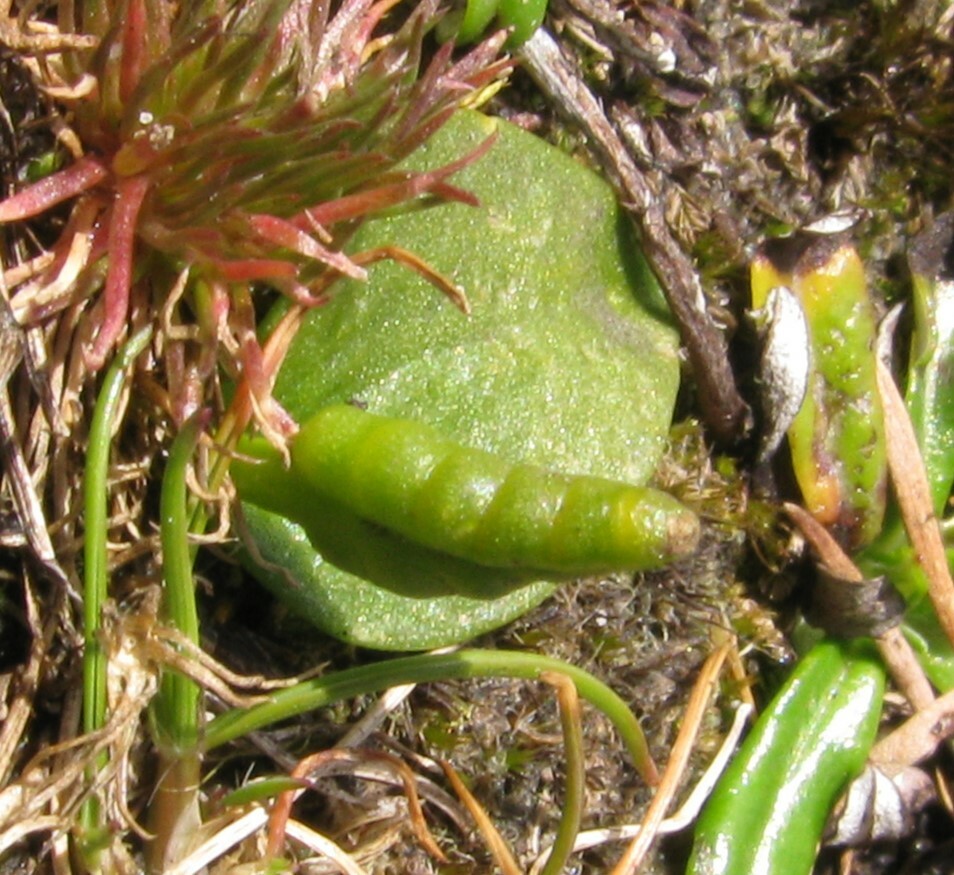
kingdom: Plantae
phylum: Tracheophyta
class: Polypodiopsida
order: Ophioglossales
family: Ophioglossaceae
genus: Ophioglossum
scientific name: Ophioglossum lusitanicum
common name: Least adder's-tongue
